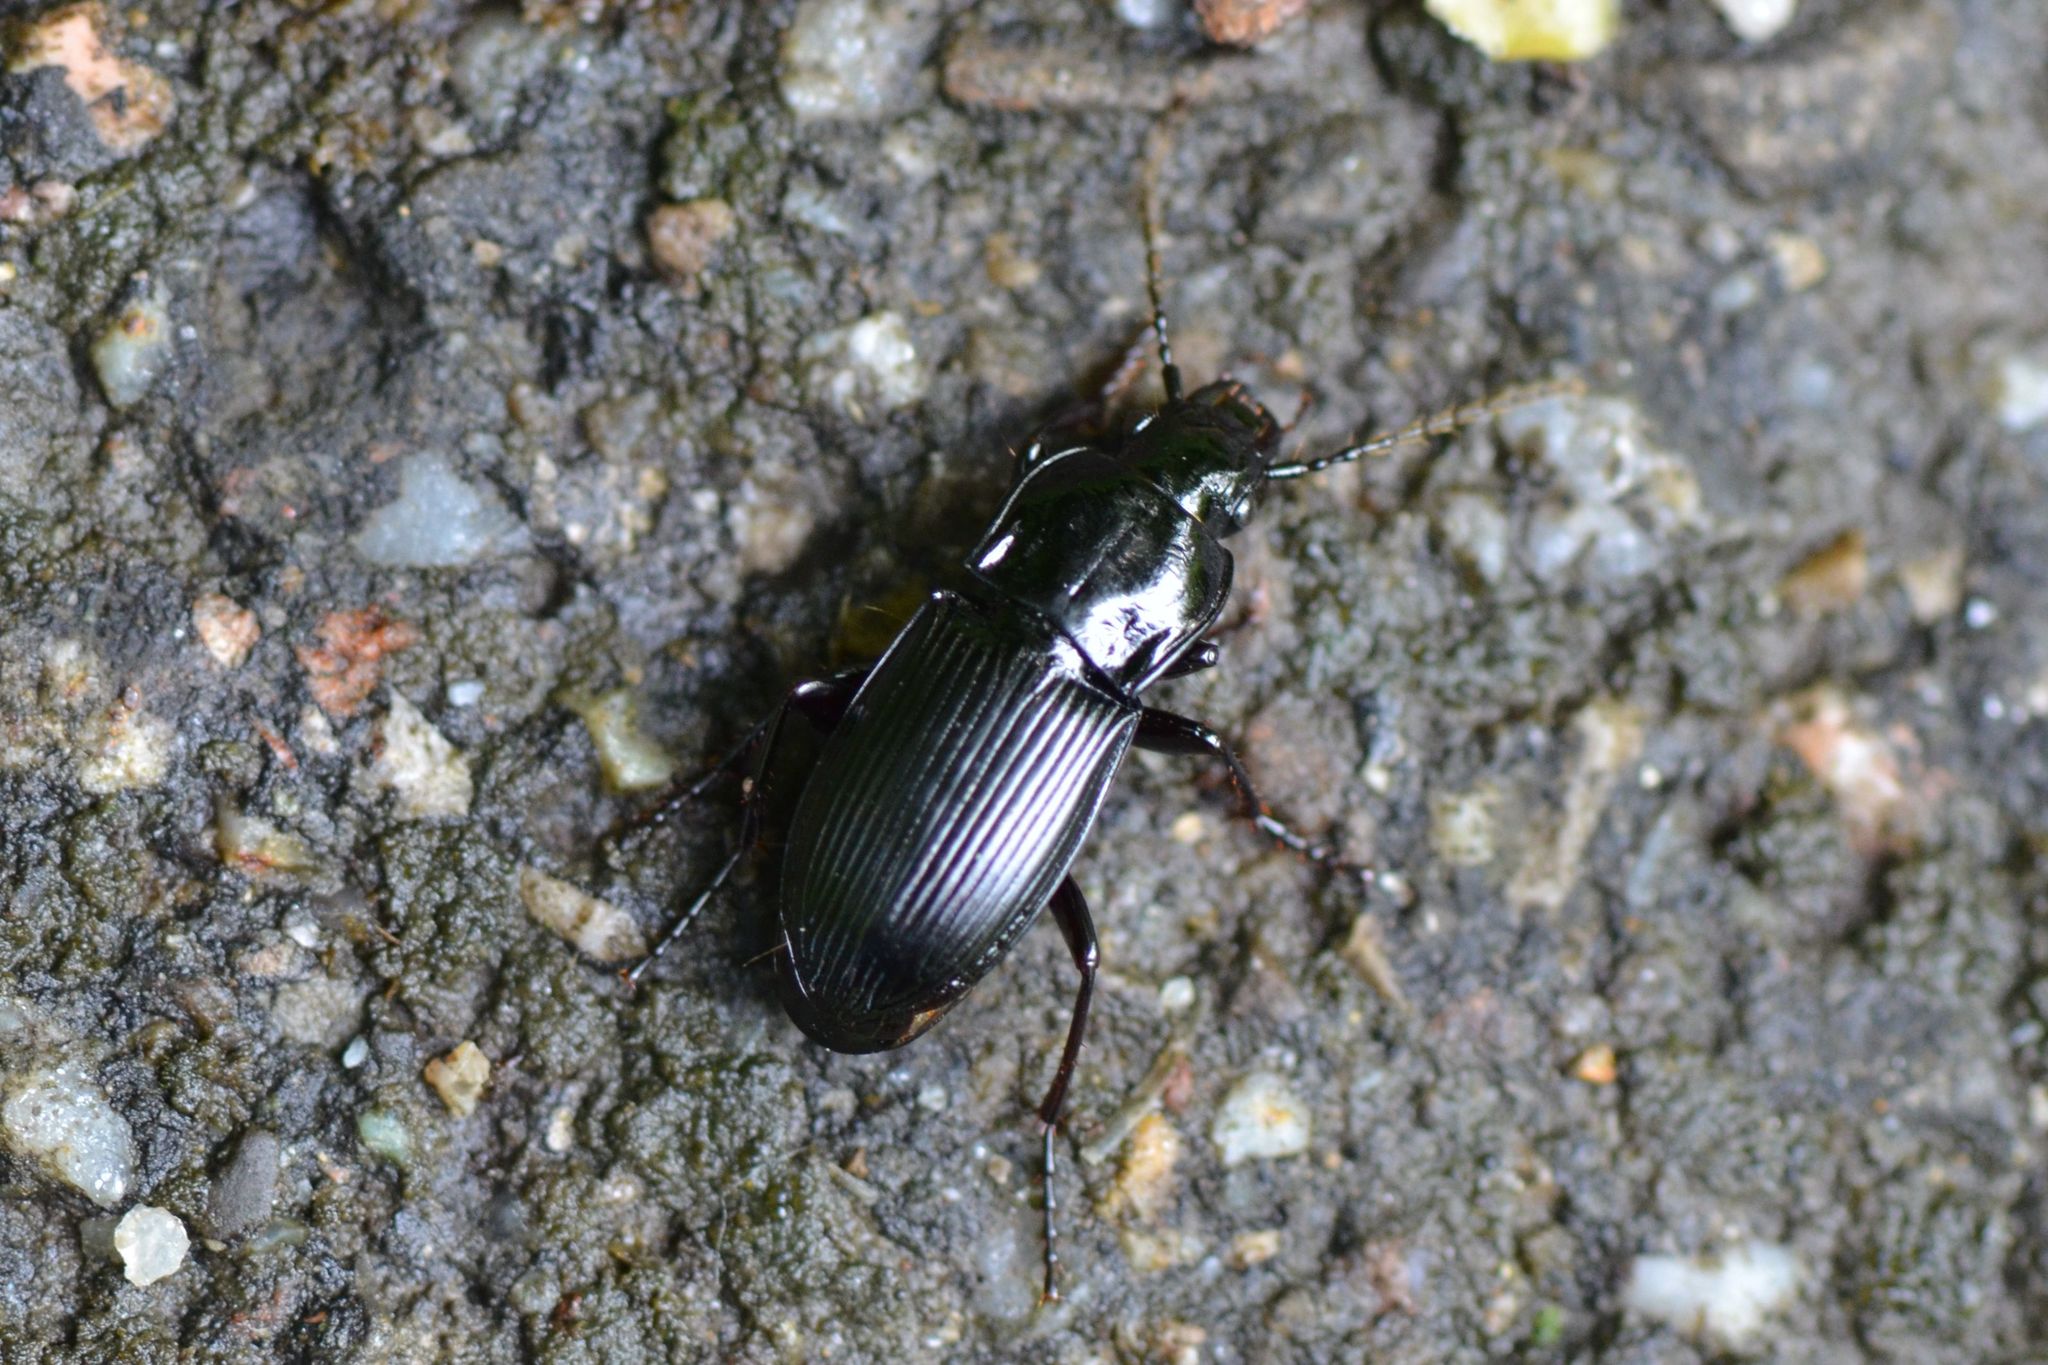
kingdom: Animalia
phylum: Arthropoda
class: Insecta
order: Coleoptera
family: Carabidae
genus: Abax
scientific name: Abax parallelus
